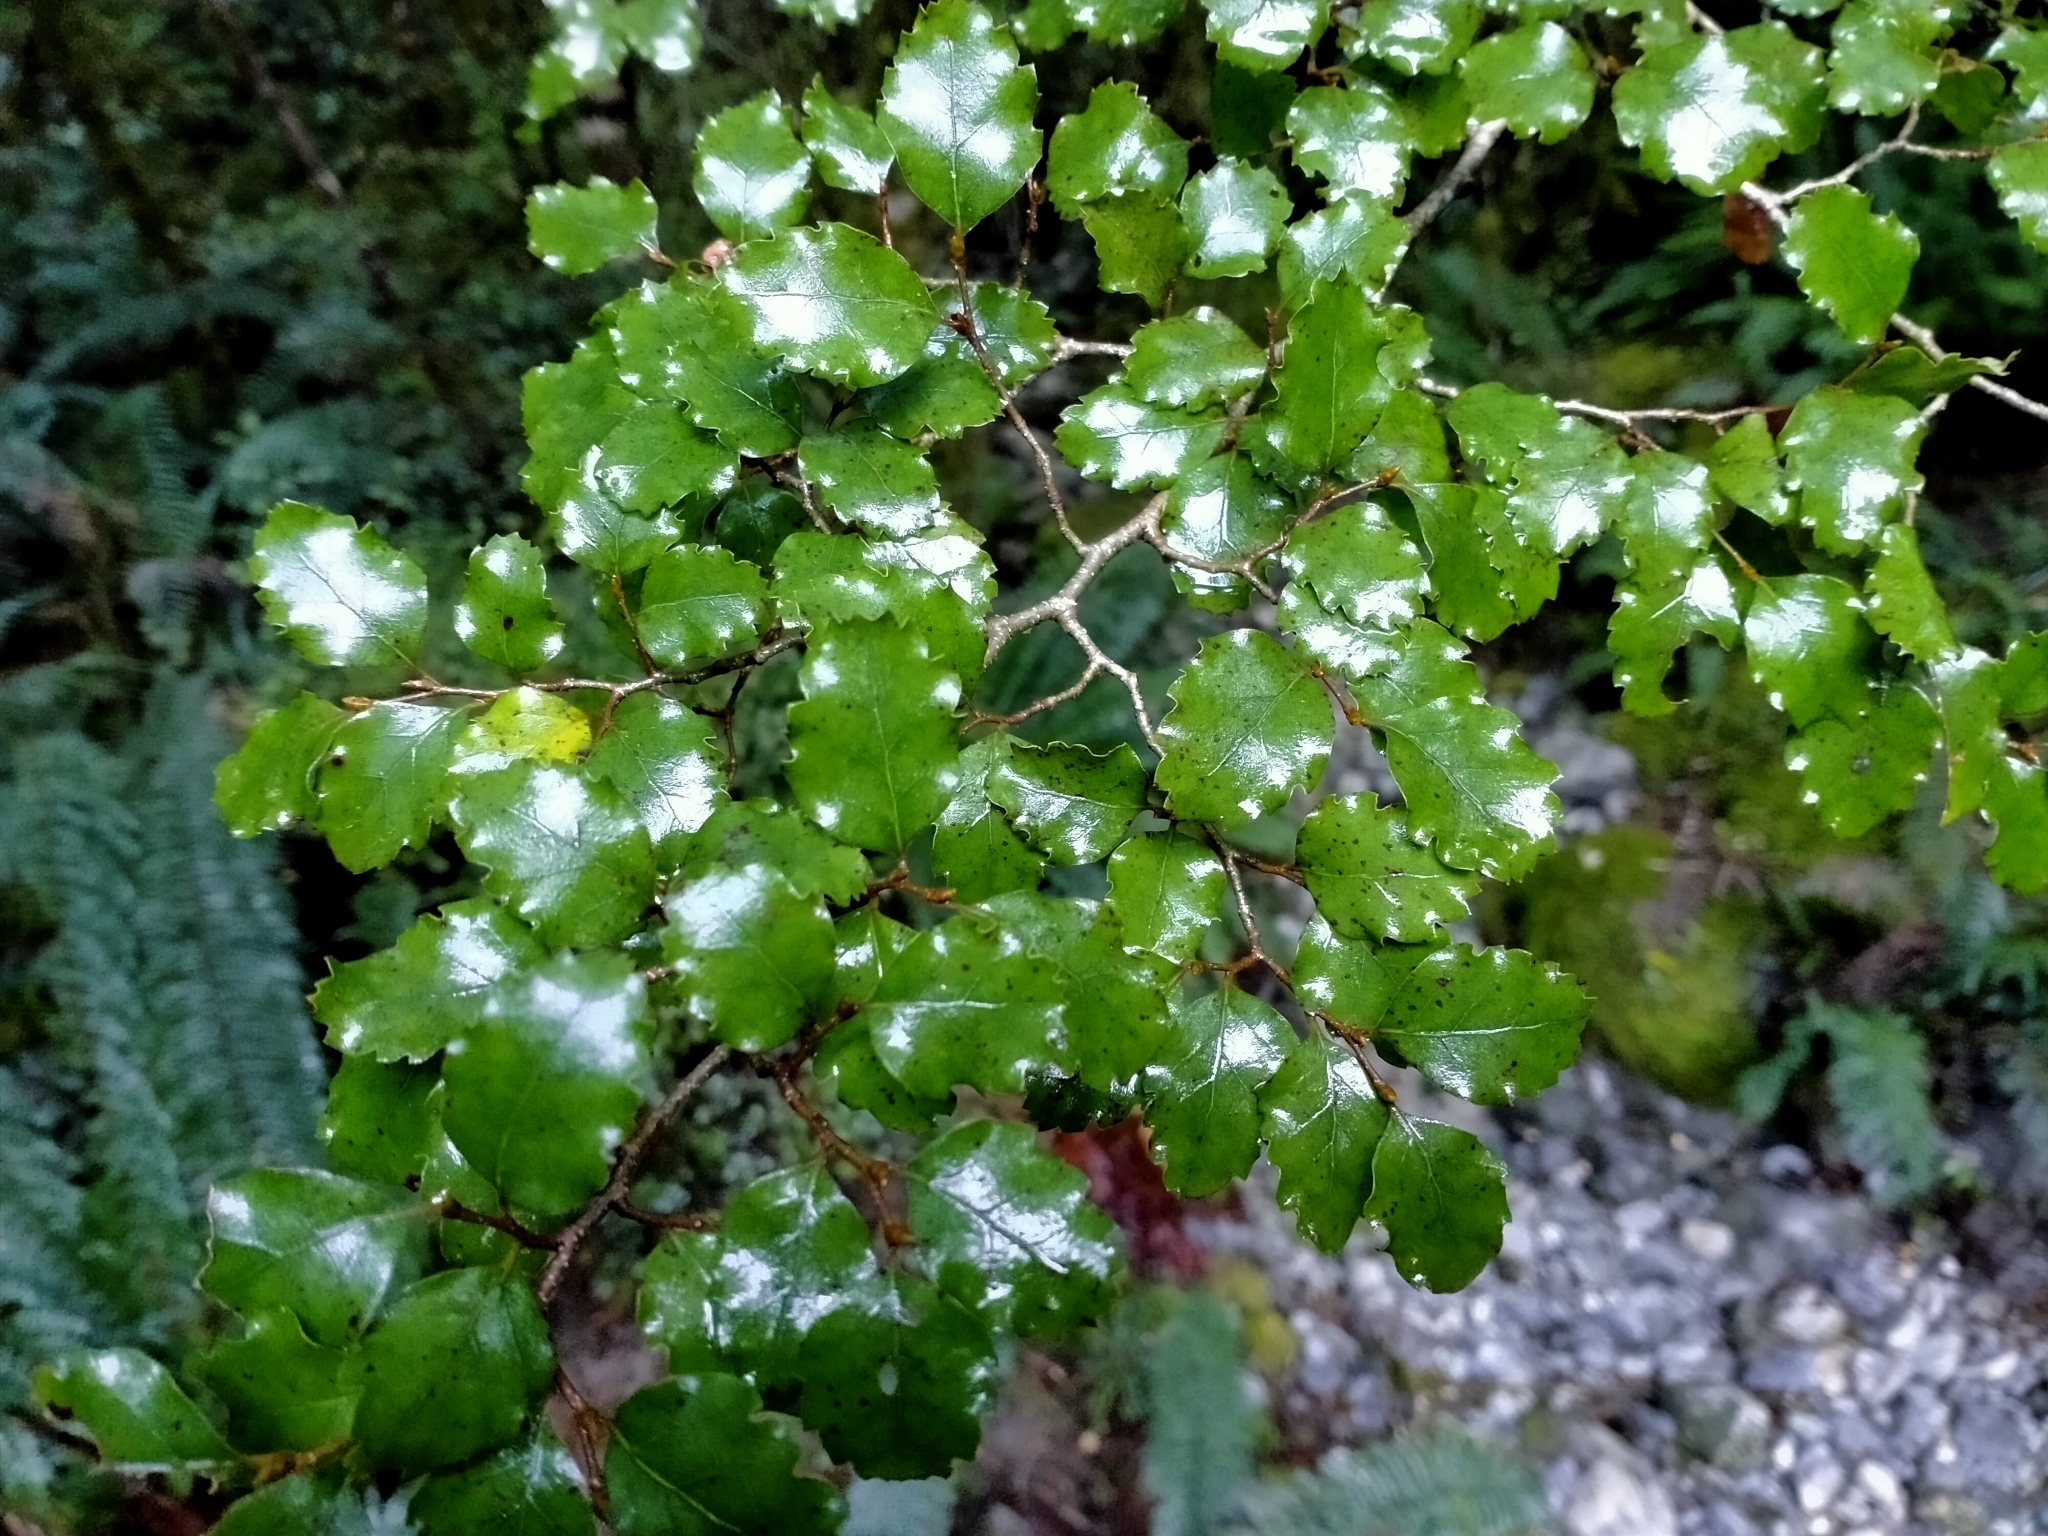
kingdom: Plantae
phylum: Tracheophyta
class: Magnoliopsida
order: Fagales
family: Nothofagaceae
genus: Nothofagus
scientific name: Nothofagus fusca
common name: Red beech
